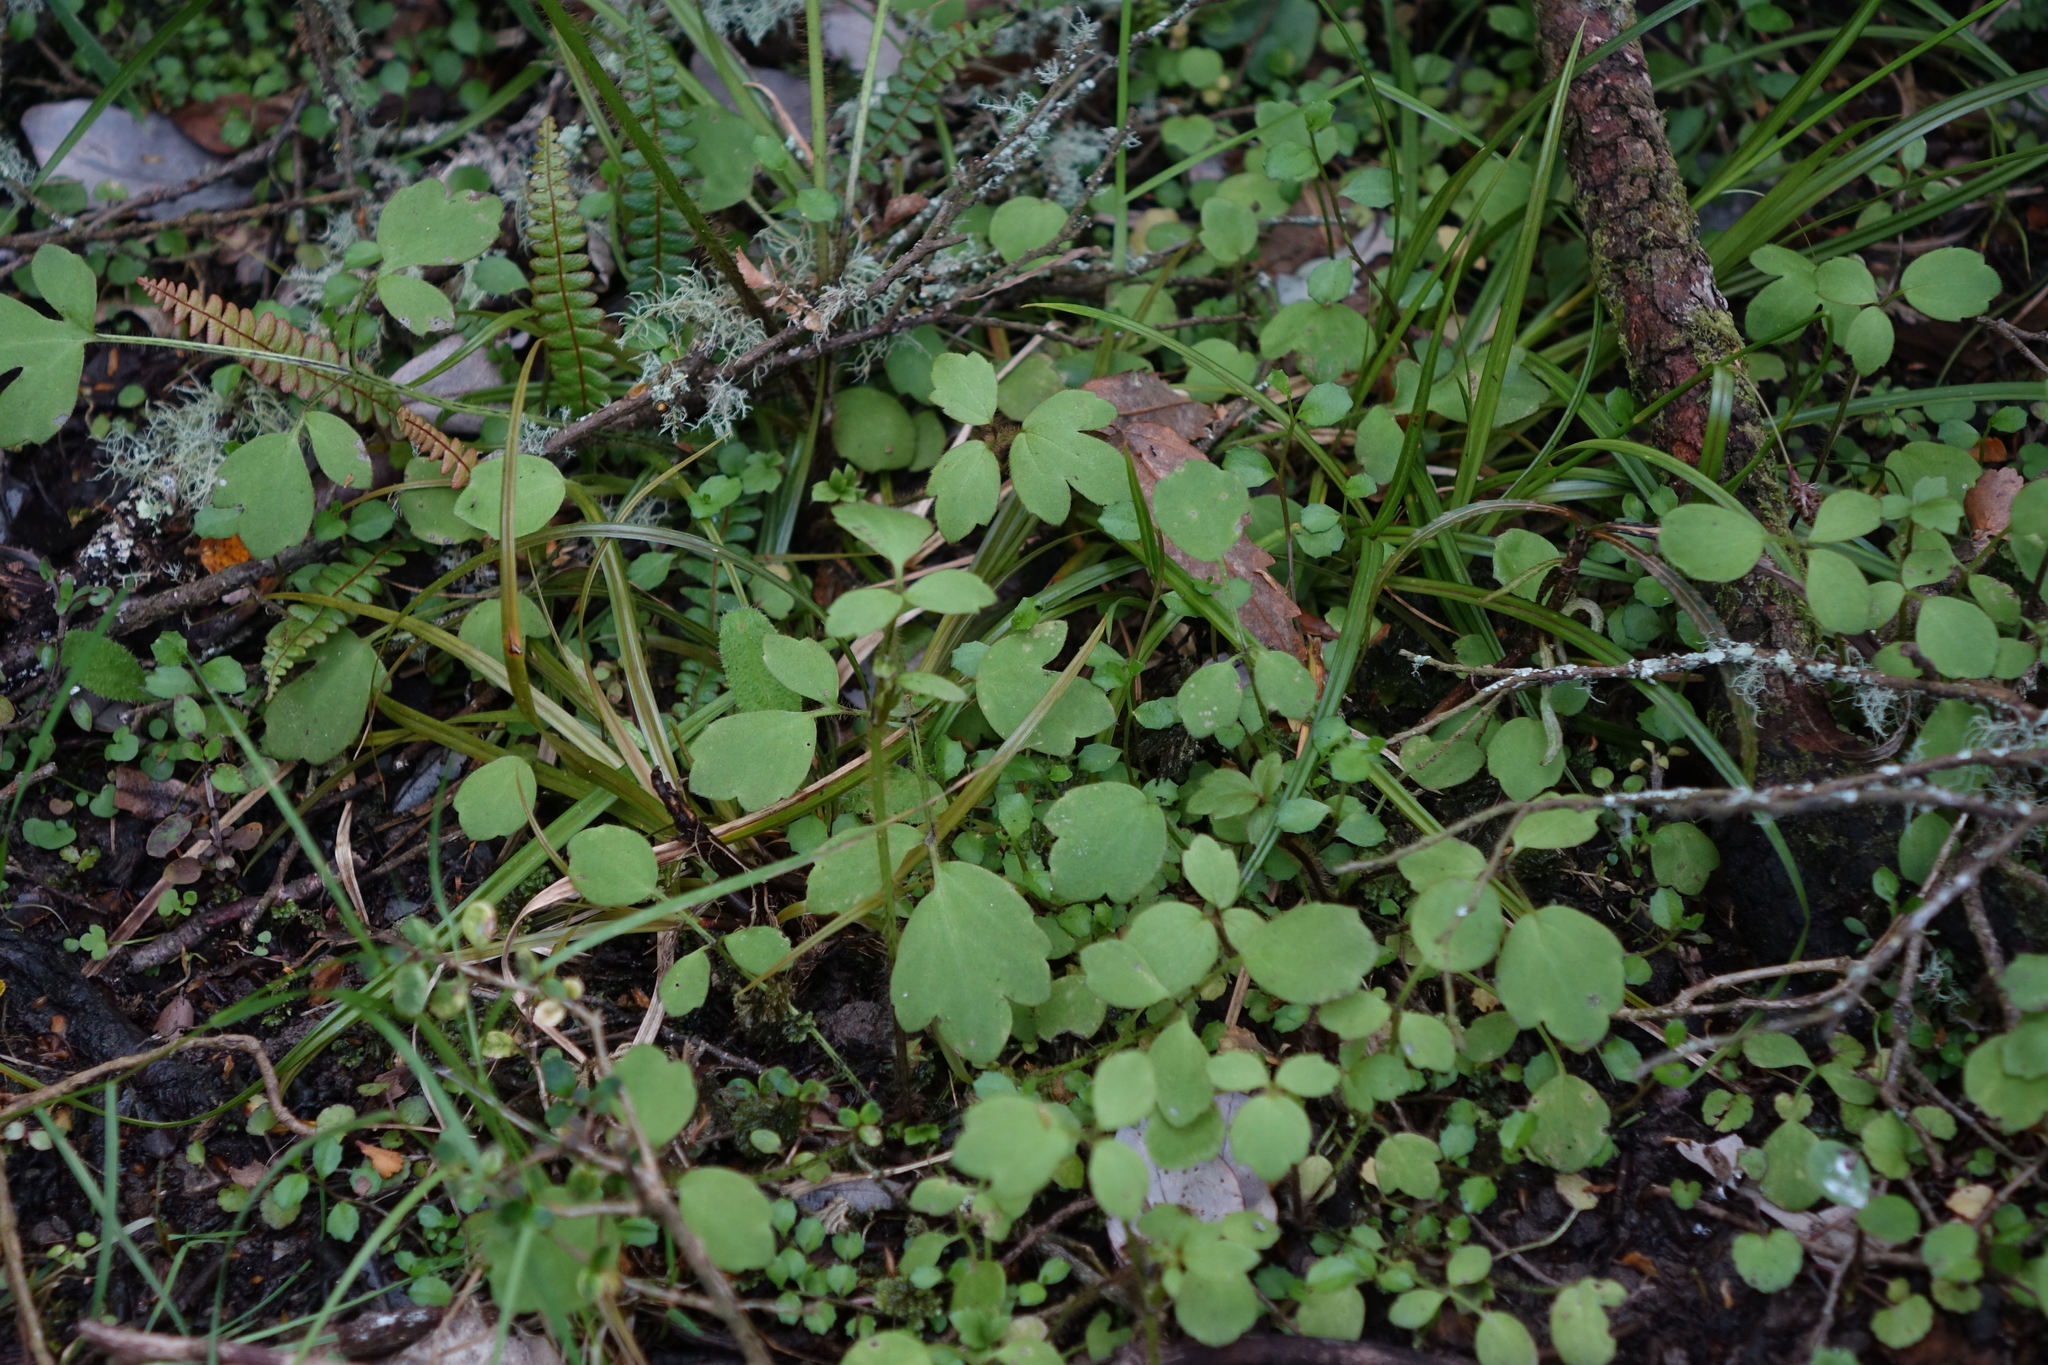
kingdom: Plantae
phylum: Tracheophyta
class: Magnoliopsida
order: Ranunculales
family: Ranunculaceae
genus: Ranunculus
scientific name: Ranunculus reflexus
